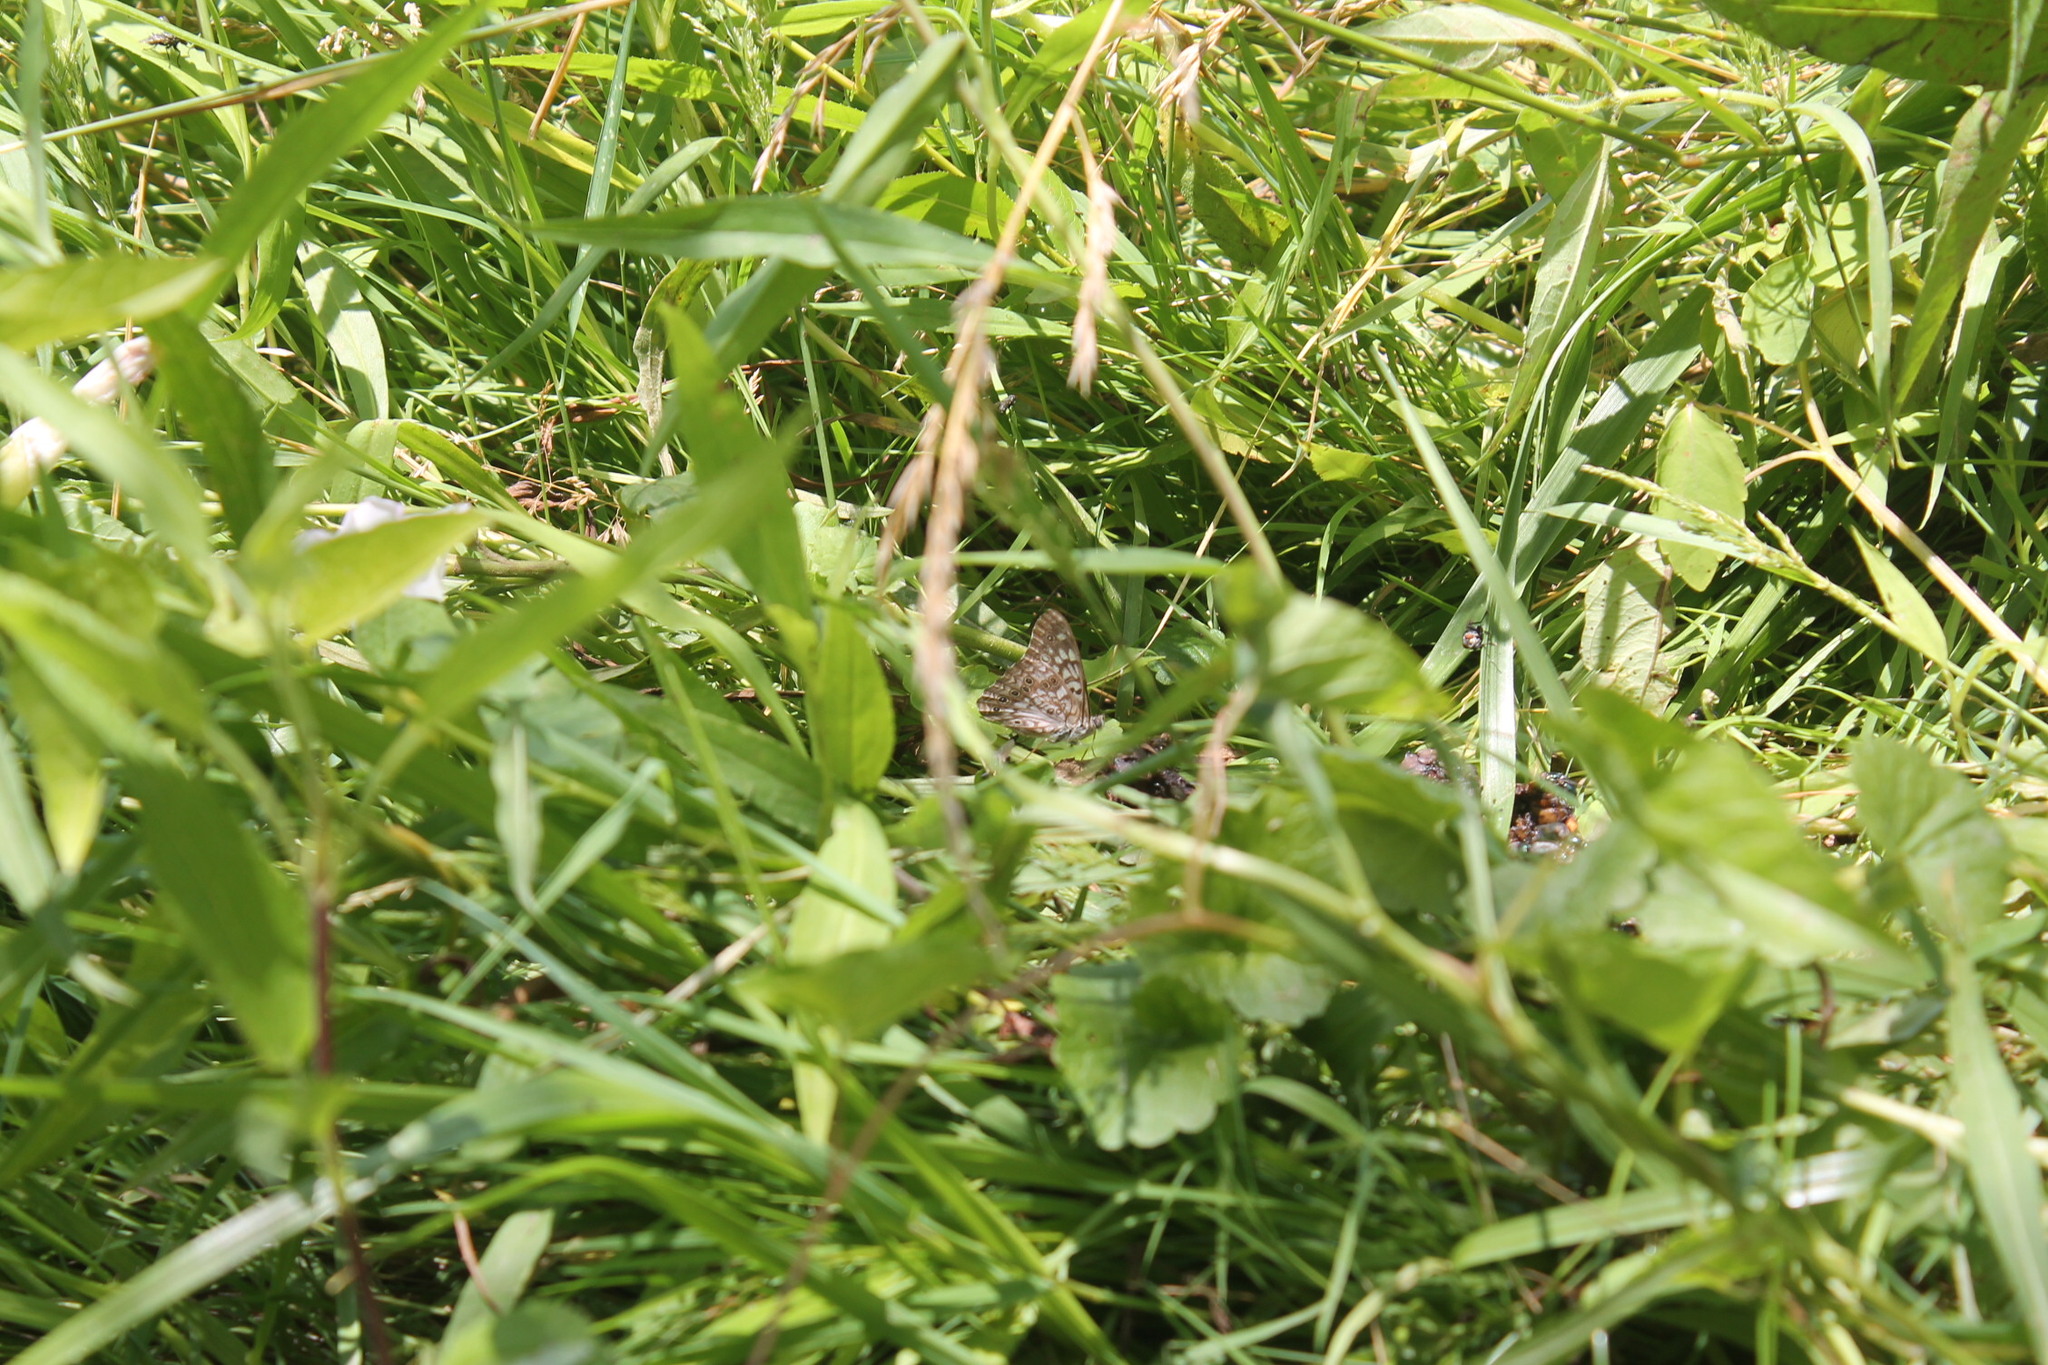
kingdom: Animalia
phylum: Arthropoda
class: Insecta
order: Lepidoptera
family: Nymphalidae
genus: Asterocampa
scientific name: Asterocampa celtis
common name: Hackberry emperor
